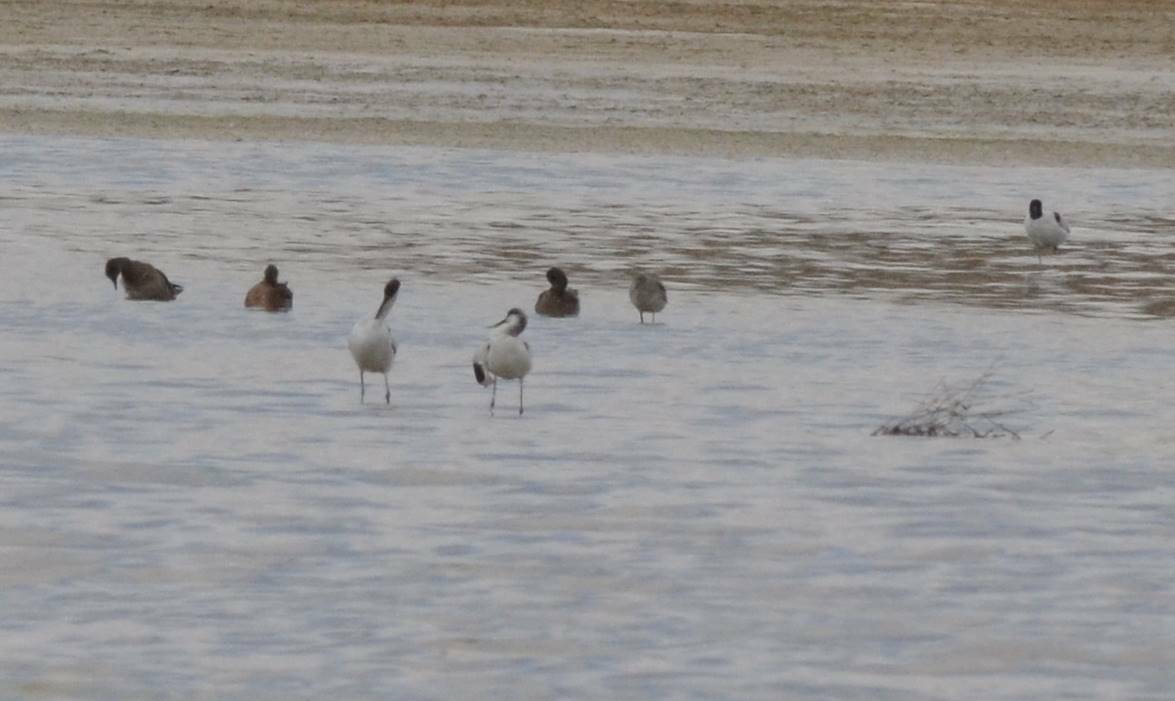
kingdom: Animalia
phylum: Chordata
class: Aves
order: Charadriiformes
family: Recurvirostridae
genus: Recurvirostra
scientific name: Recurvirostra avosetta
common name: Pied avocet
